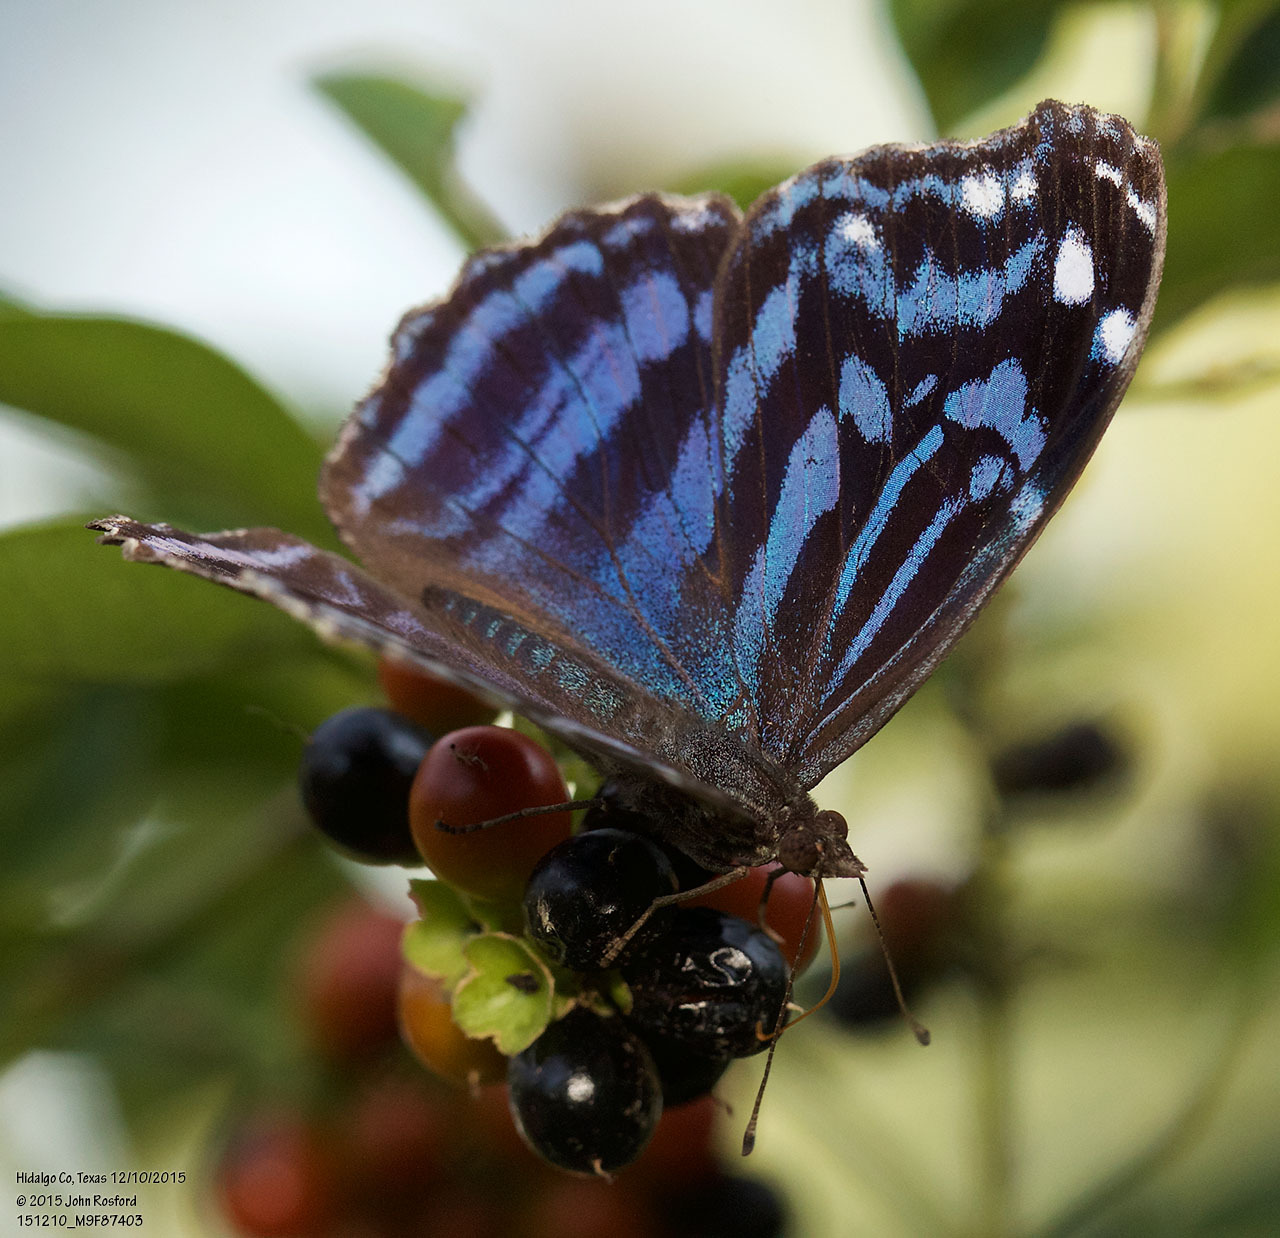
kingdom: Animalia
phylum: Arthropoda
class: Insecta
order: Lepidoptera
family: Nymphalidae
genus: Myscelia
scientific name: Myscelia ethusa
